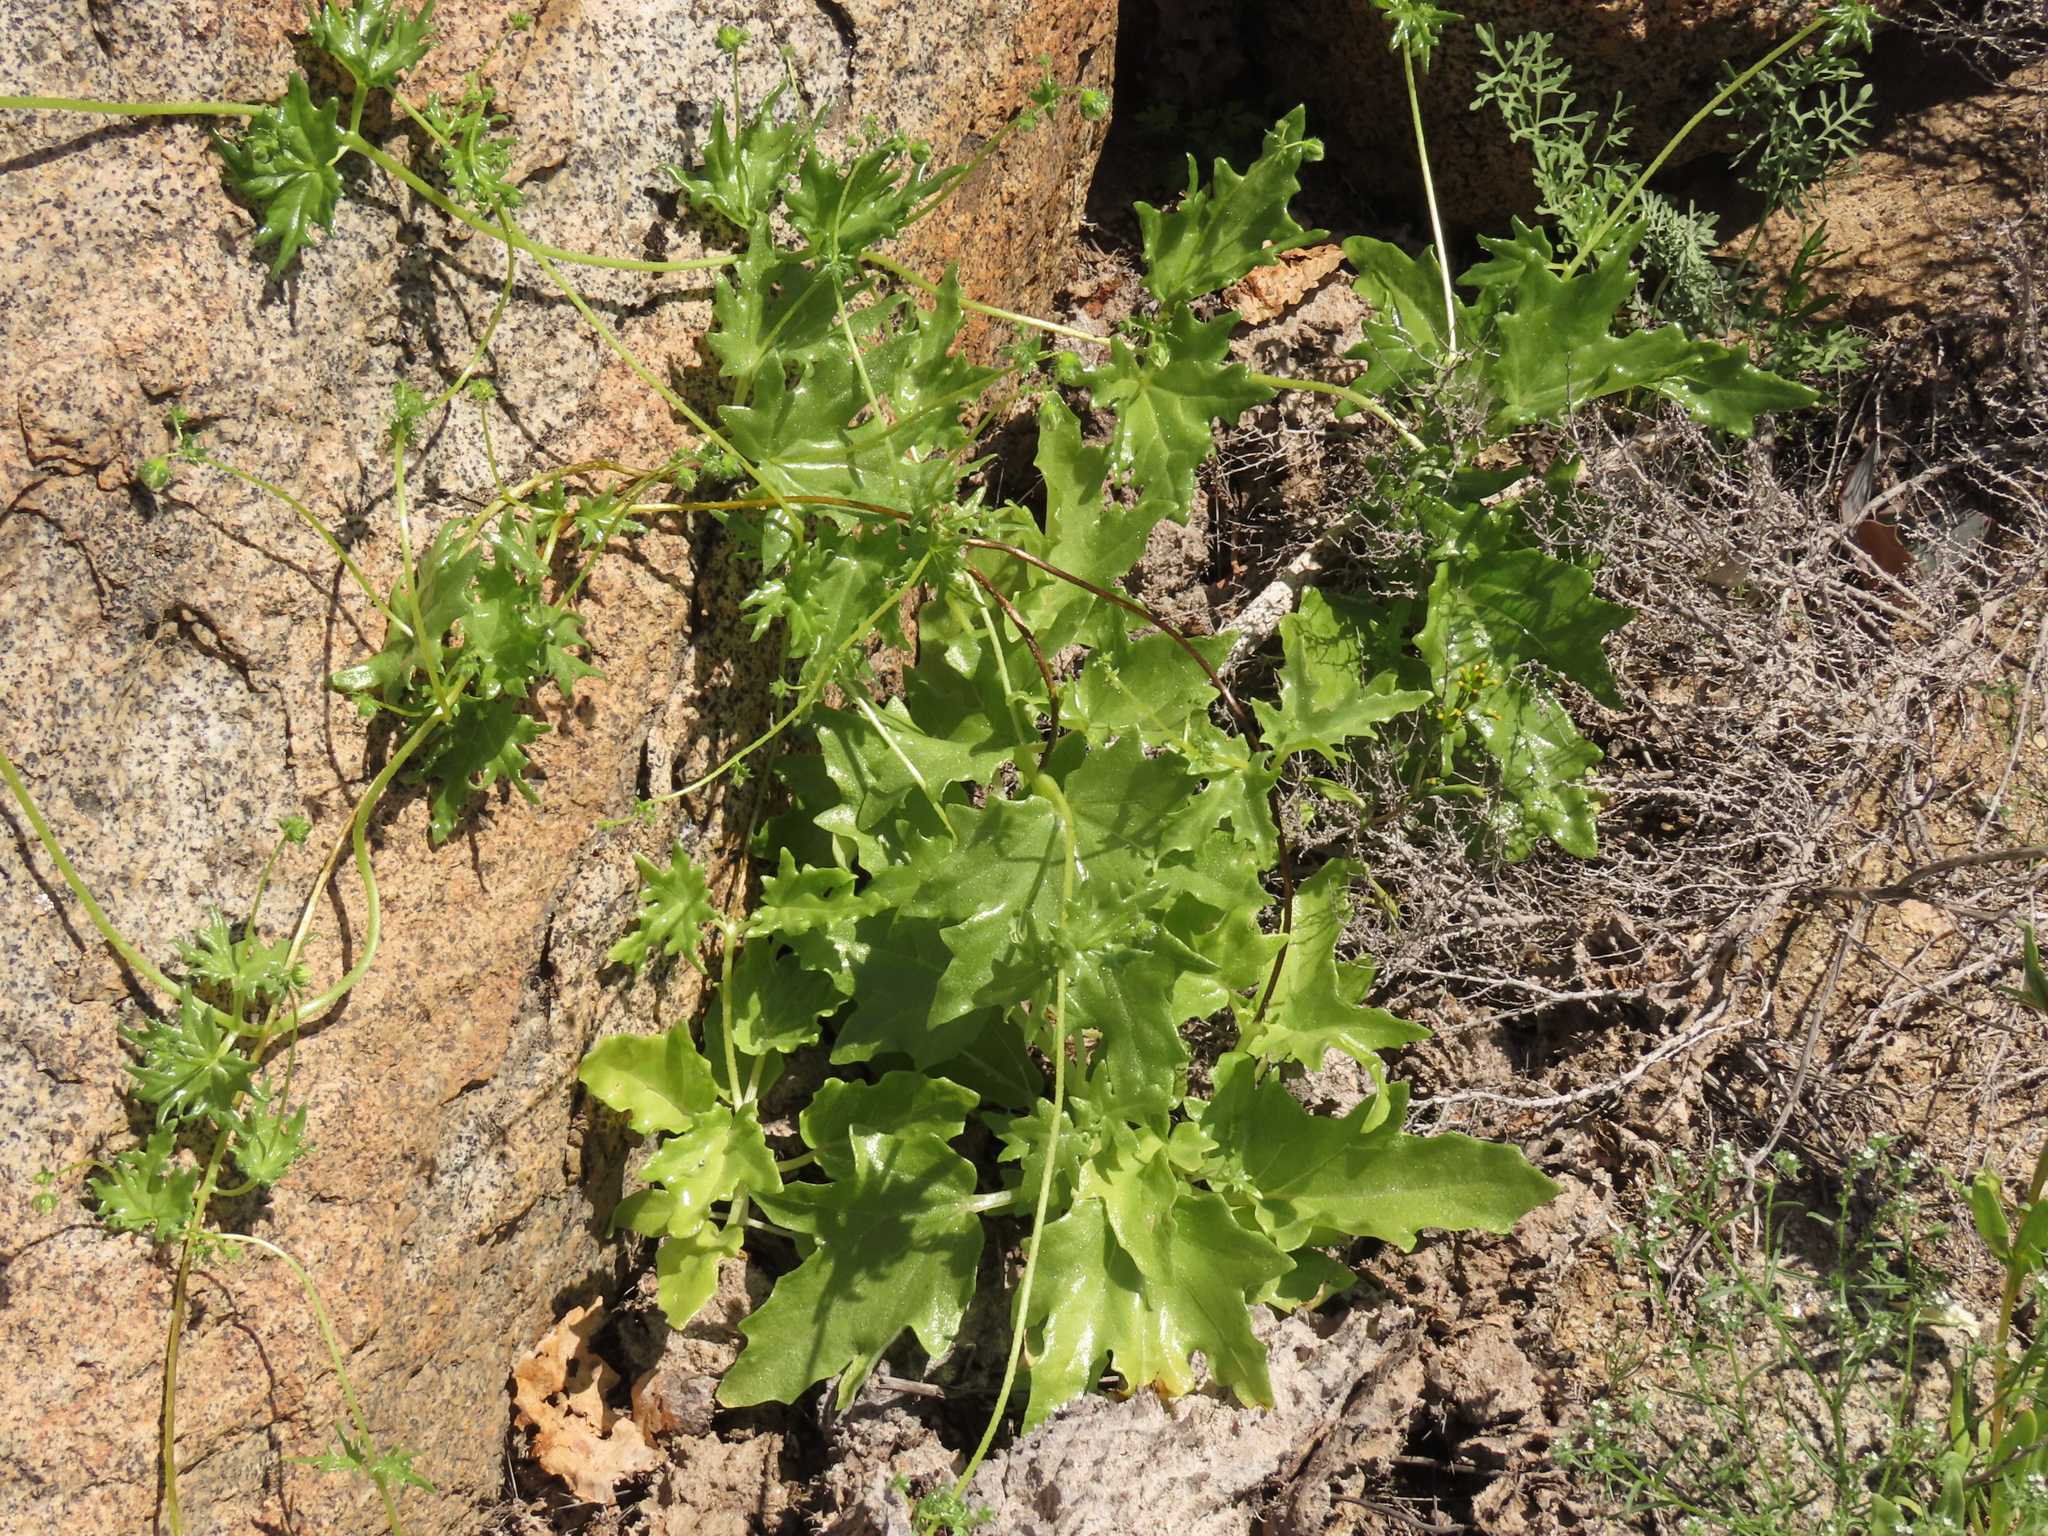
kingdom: Plantae
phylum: Tracheophyta
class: Magnoliopsida
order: Cornales
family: Loasaceae
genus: Loasa
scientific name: Loasa elongata
